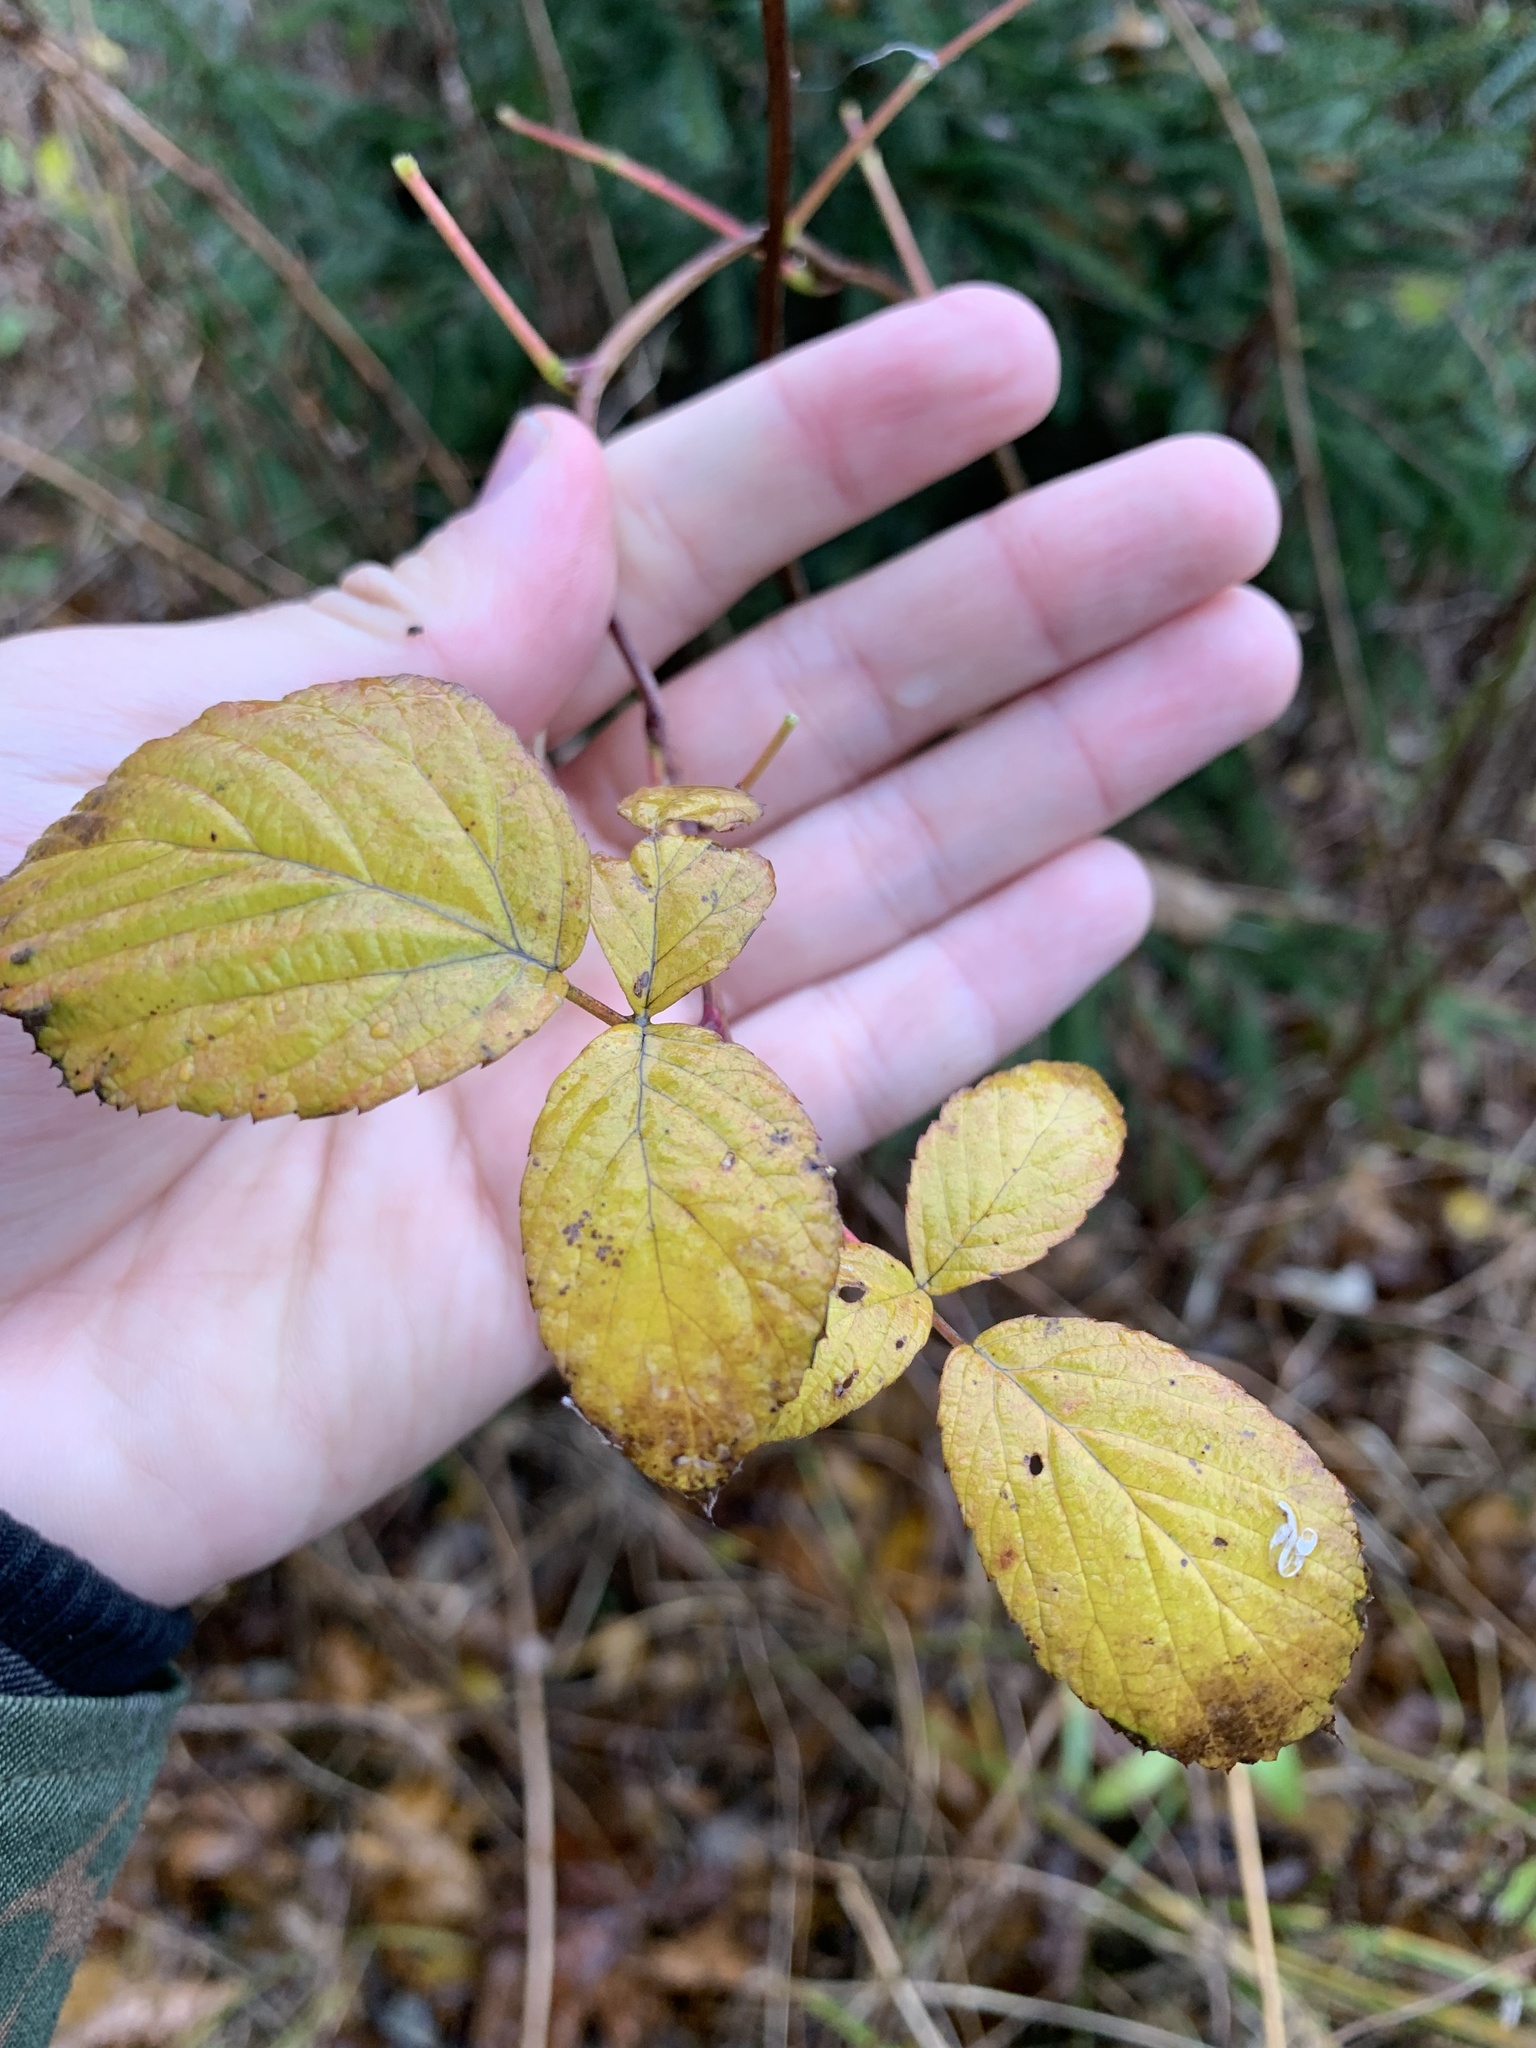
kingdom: Plantae
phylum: Tracheophyta
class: Magnoliopsida
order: Rosales
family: Rosaceae
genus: Rubus
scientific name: Rubus idaeus
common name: Raspberry
